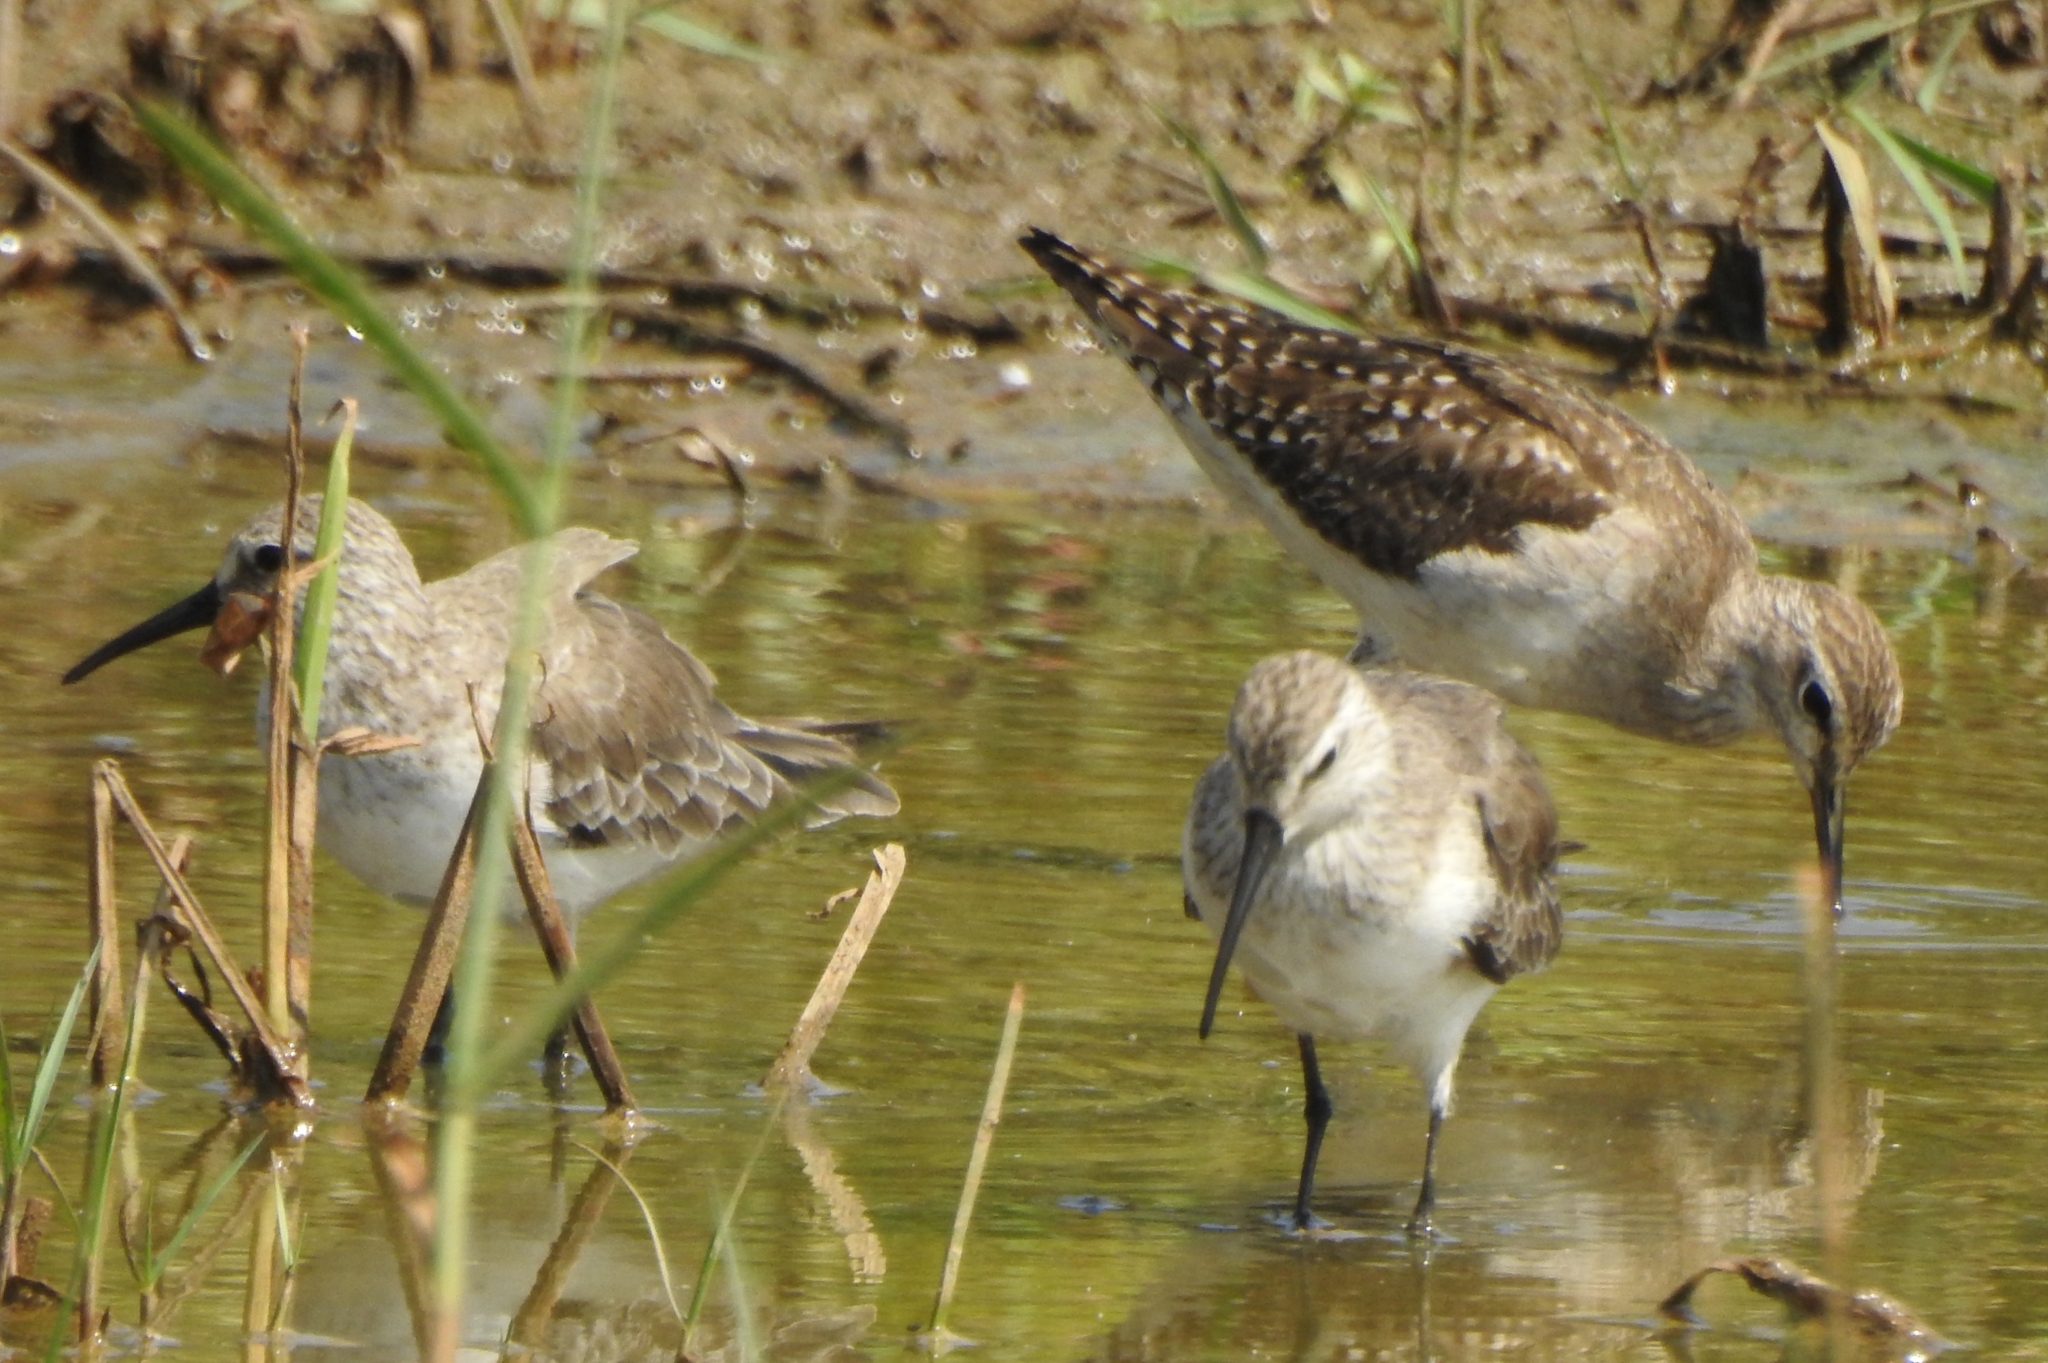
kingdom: Animalia
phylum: Chordata
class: Aves
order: Charadriiformes
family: Scolopacidae
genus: Calidris
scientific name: Calidris ferruginea
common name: Curlew sandpiper
